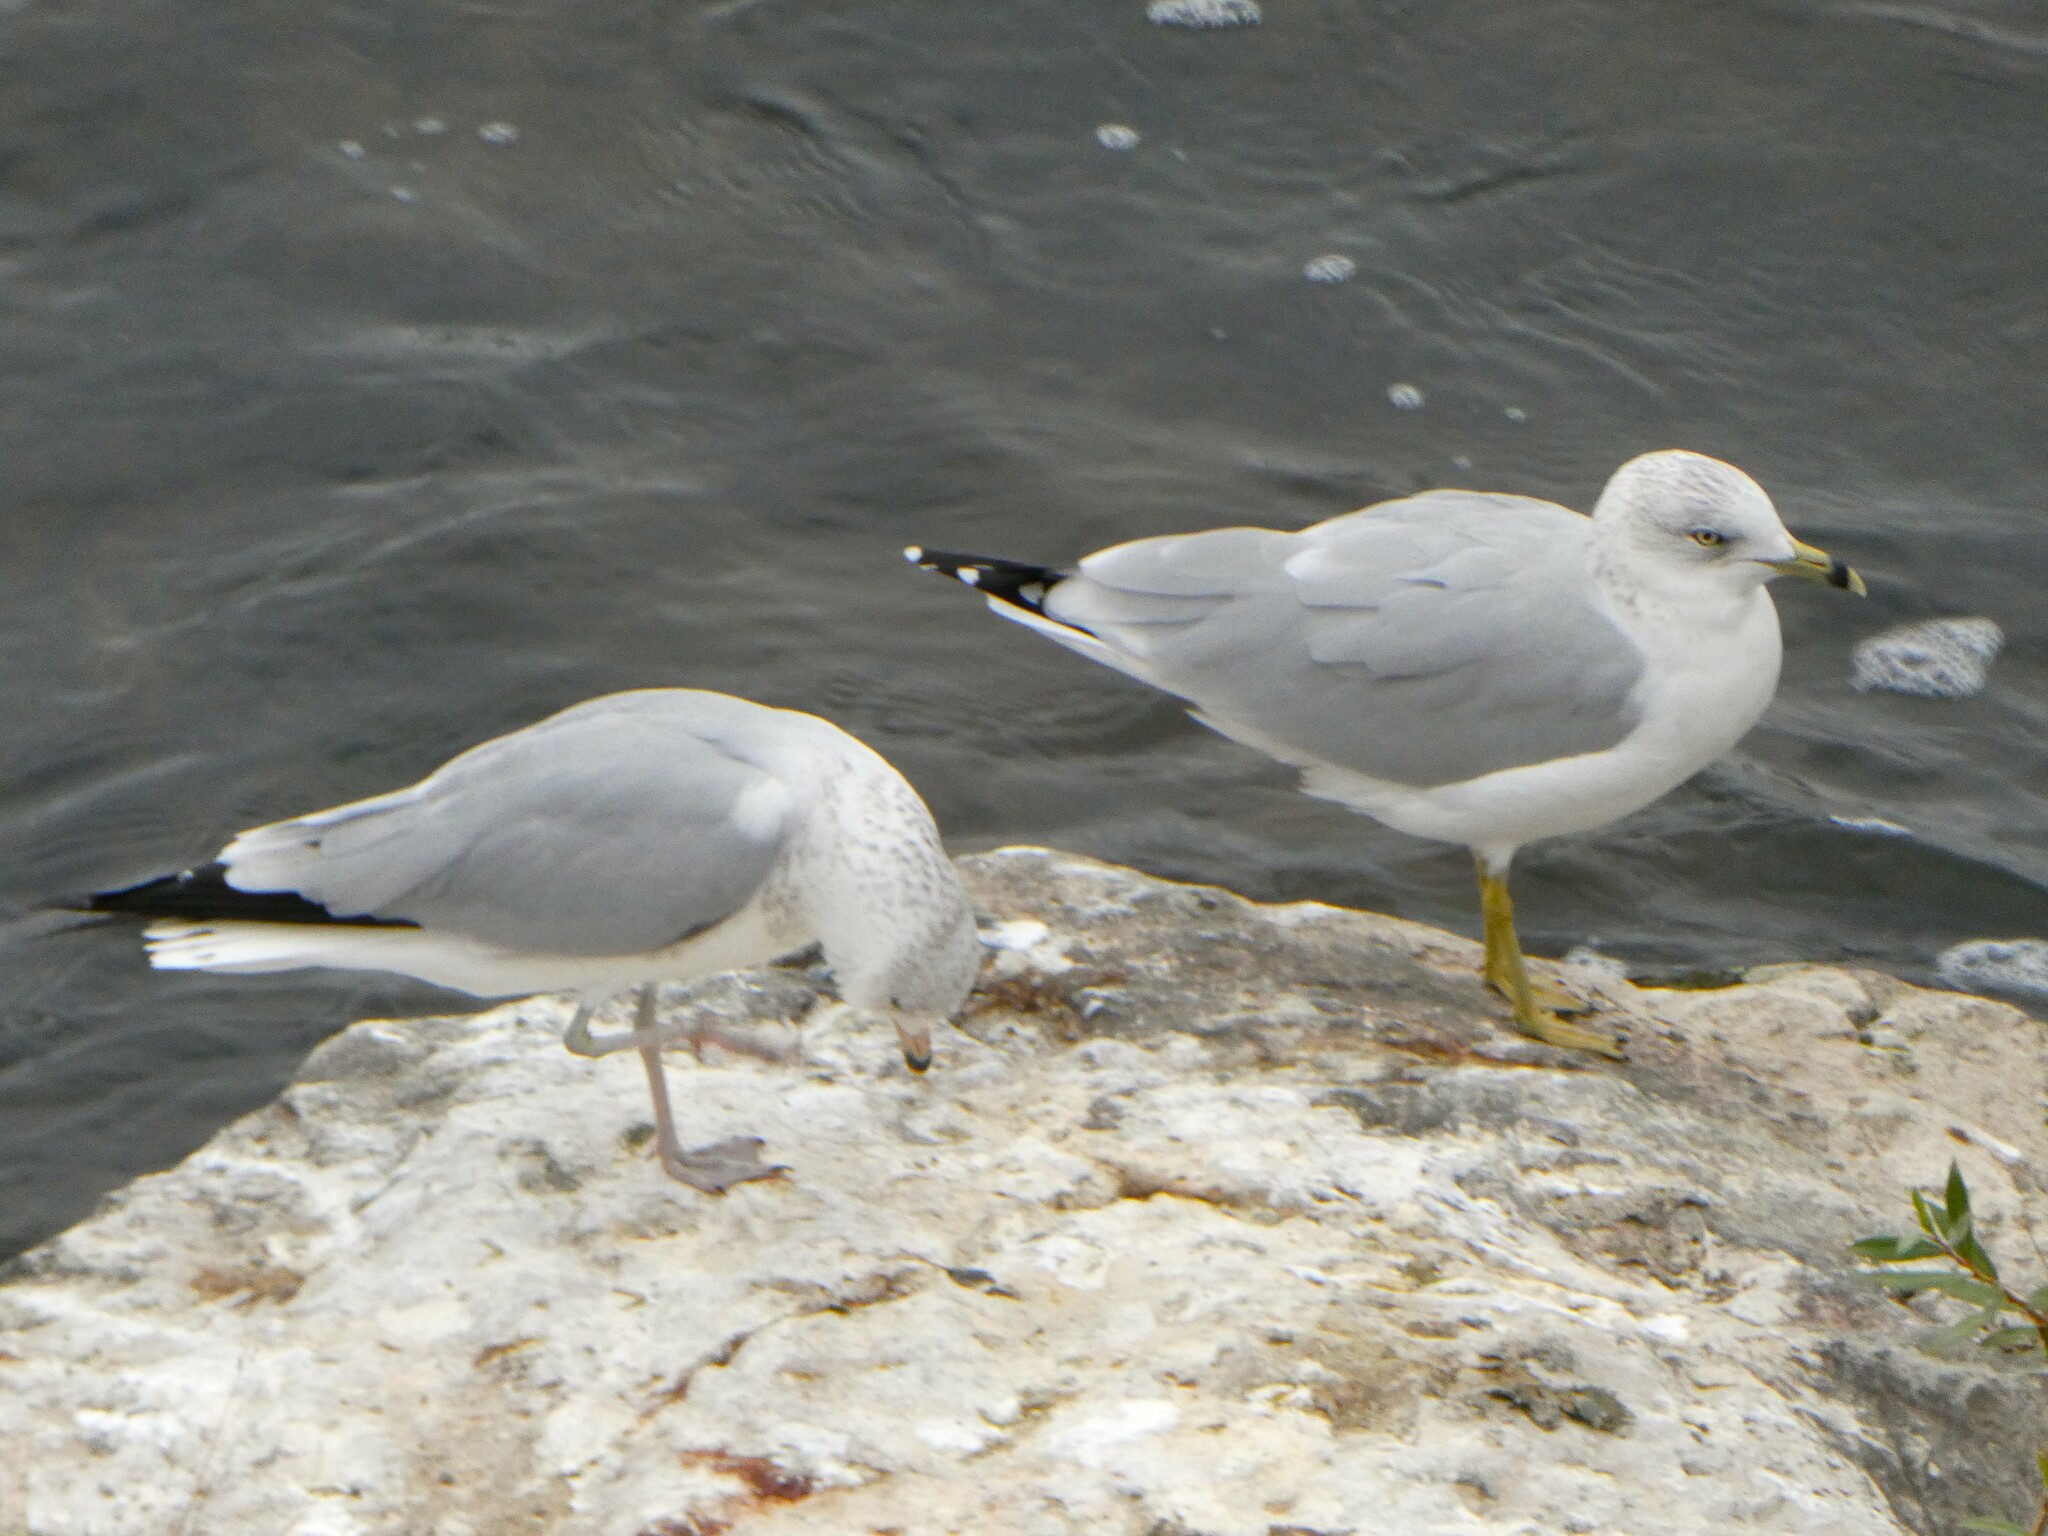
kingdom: Animalia
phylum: Chordata
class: Aves
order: Charadriiformes
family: Laridae
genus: Larus
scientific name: Larus delawarensis
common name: Ring-billed gull
